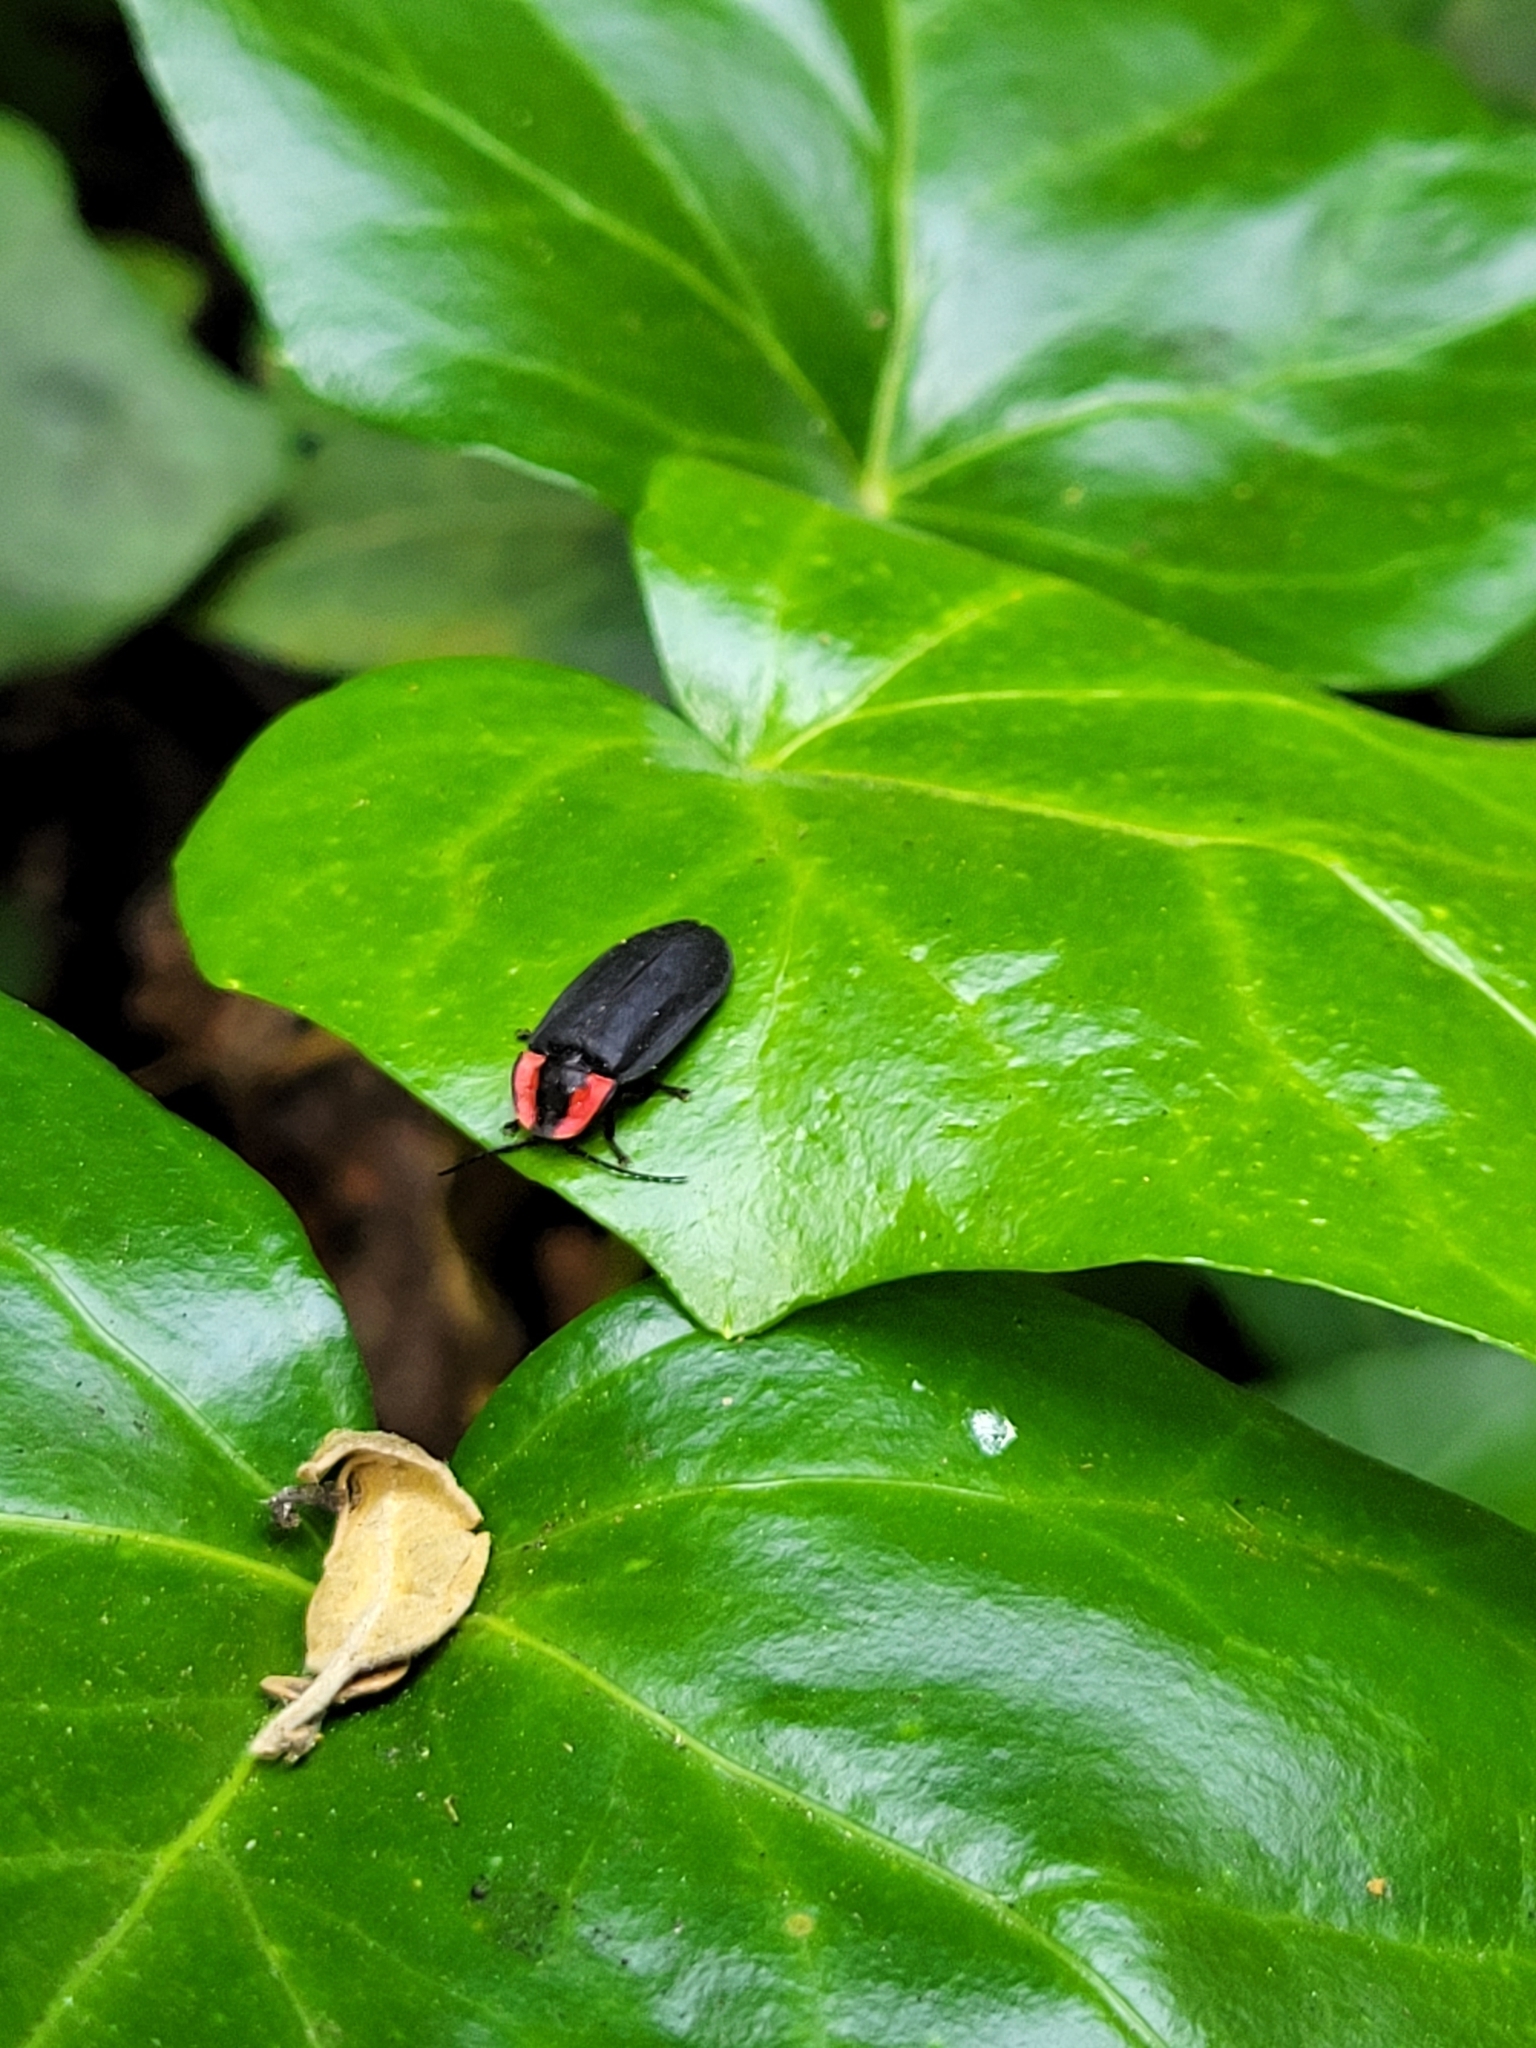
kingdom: Animalia
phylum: Arthropoda
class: Insecta
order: Coleoptera
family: Lampyridae
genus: Photinus
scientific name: Photinus californica
